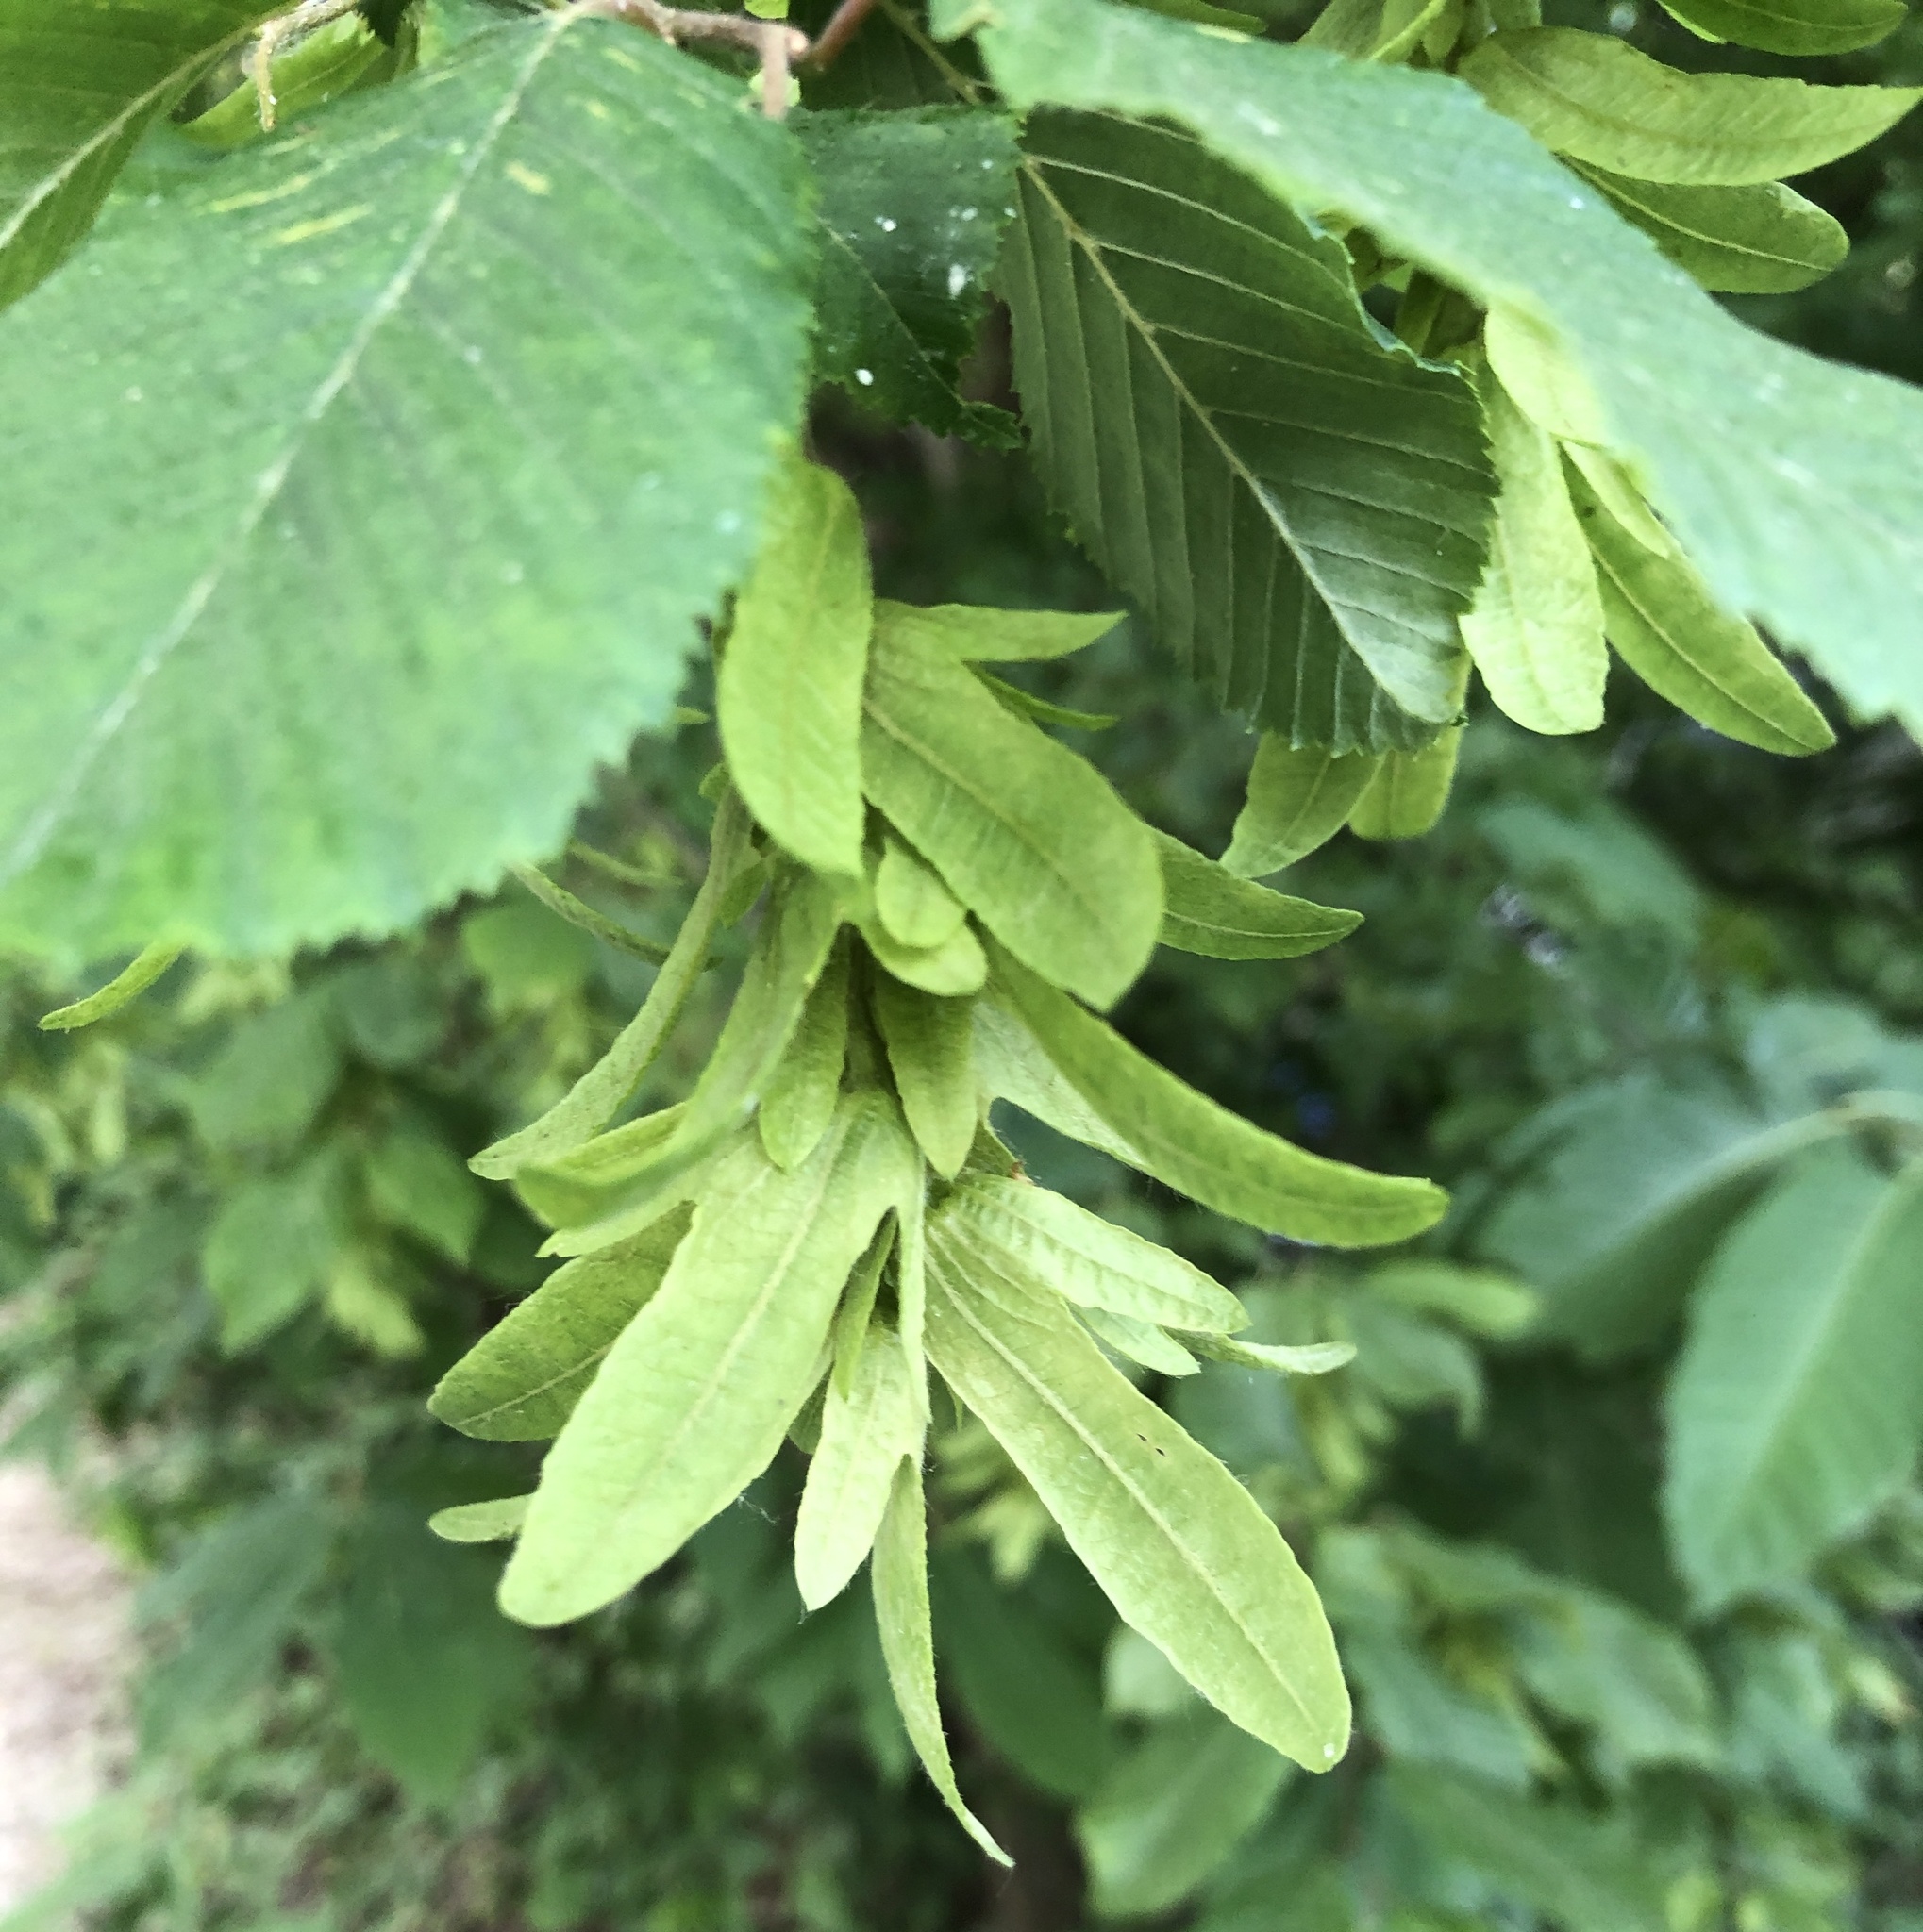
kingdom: Plantae
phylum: Tracheophyta
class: Magnoliopsida
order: Fagales
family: Betulaceae
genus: Carpinus
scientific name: Carpinus betulus
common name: Hornbeam
